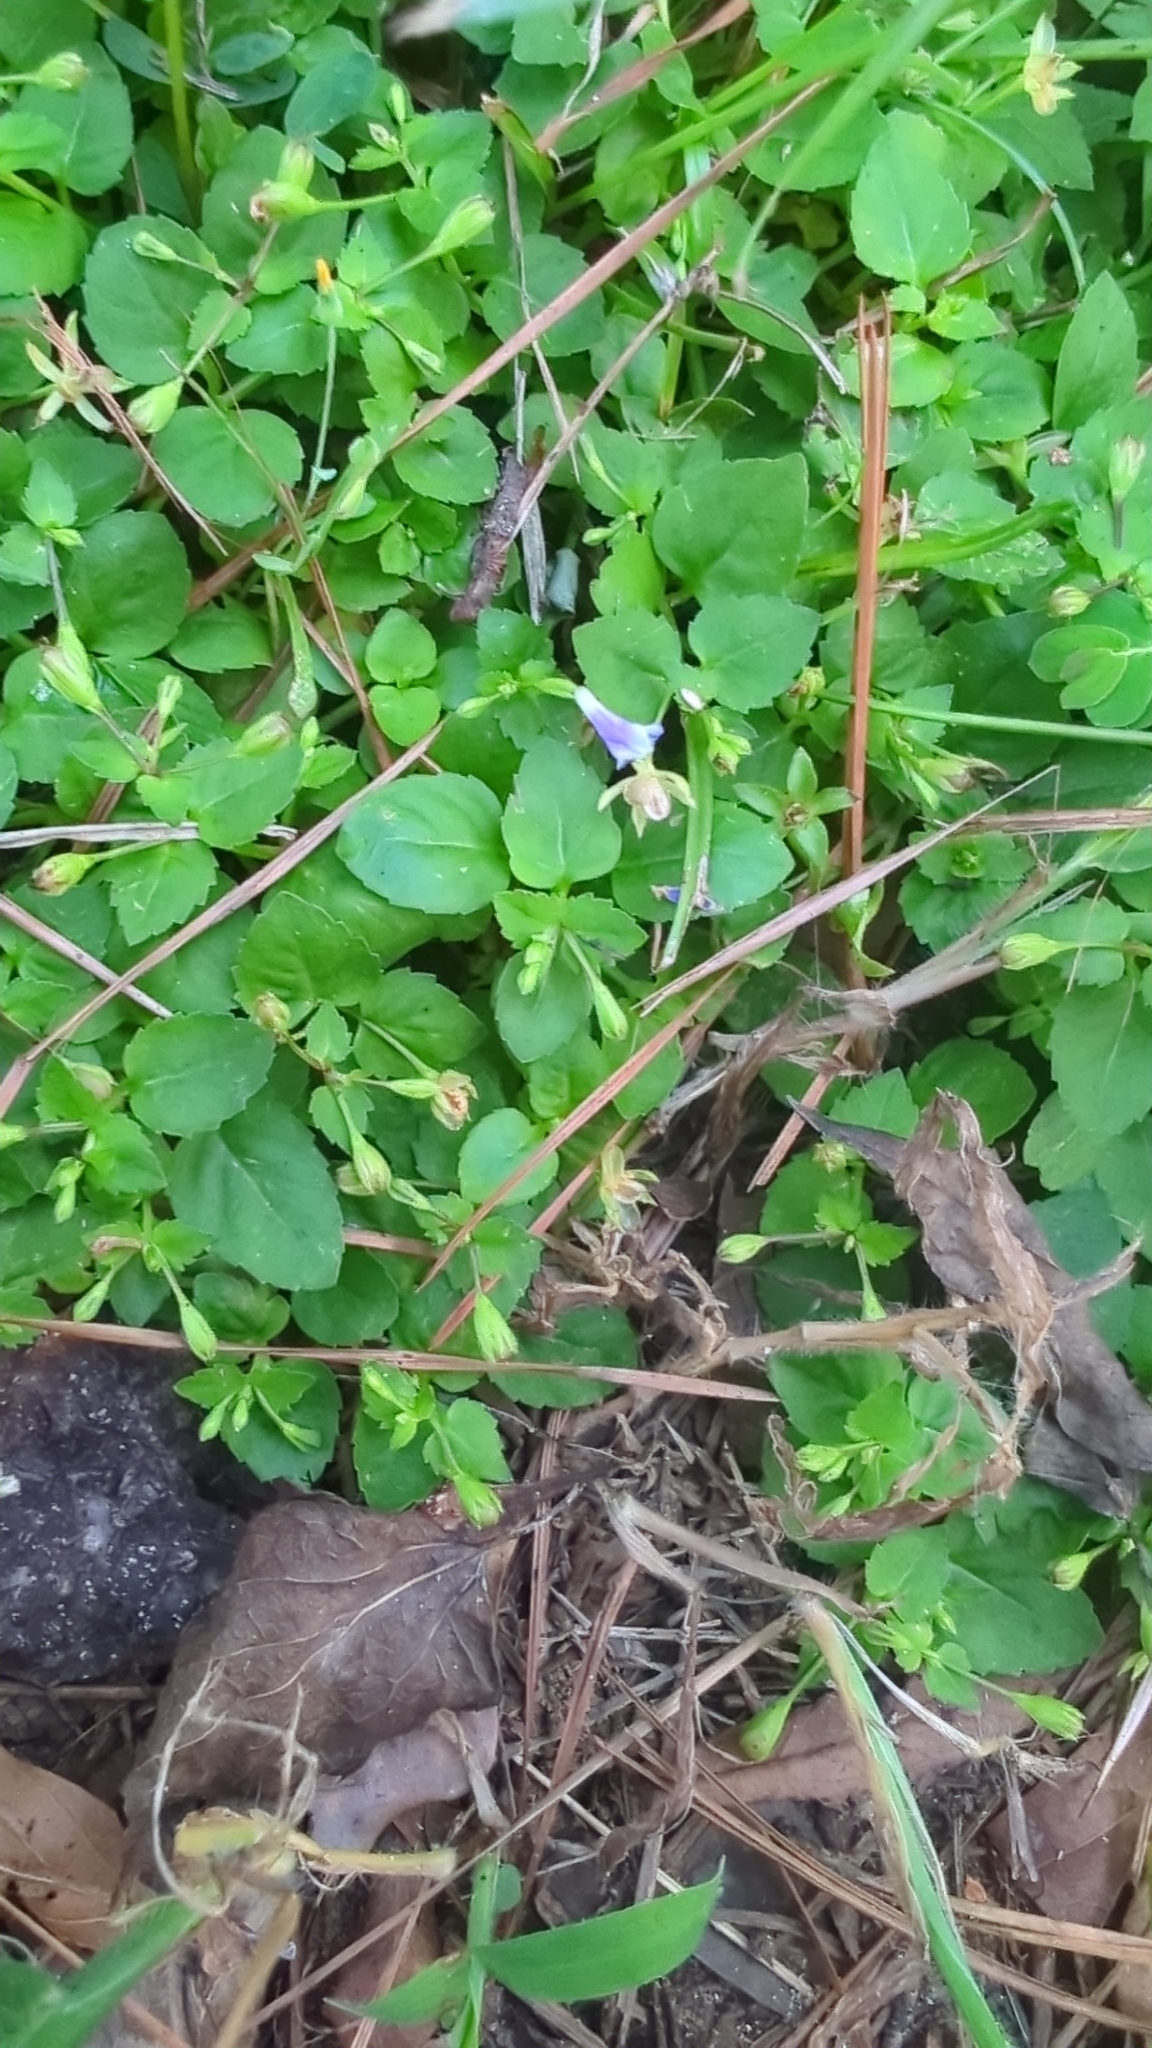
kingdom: Plantae
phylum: Tracheophyta
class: Magnoliopsida
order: Lamiales
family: Linderniaceae
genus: Torenia
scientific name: Torenia crustacea
